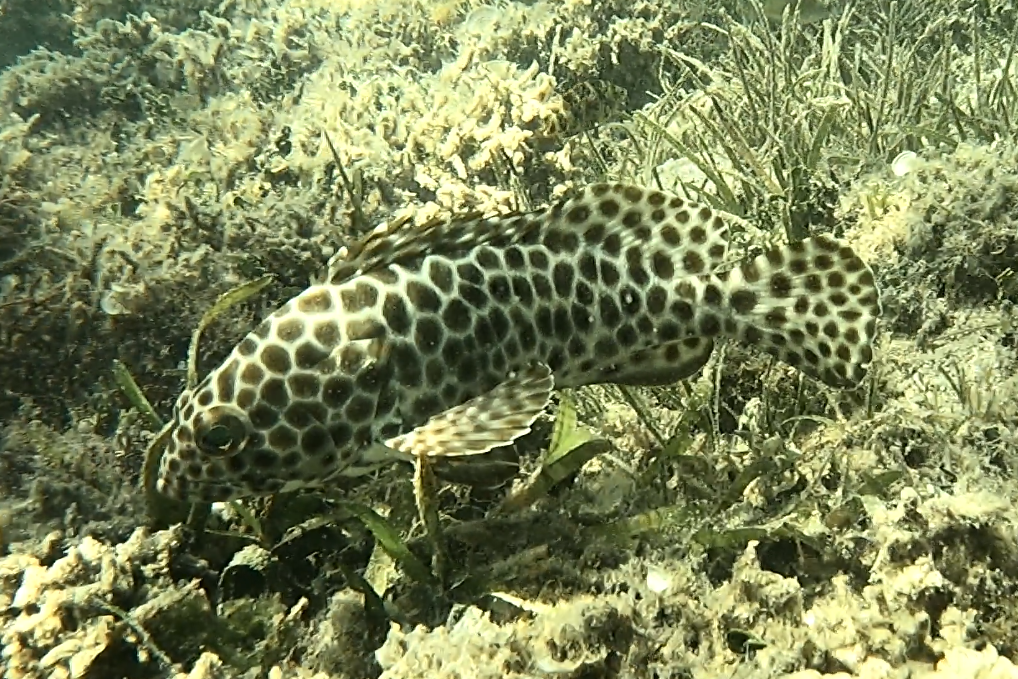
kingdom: Animalia
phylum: Chordata
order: Perciformes
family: Serranidae
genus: Epinephelus
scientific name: Epinephelus quoyanus
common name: Longfin grouper
